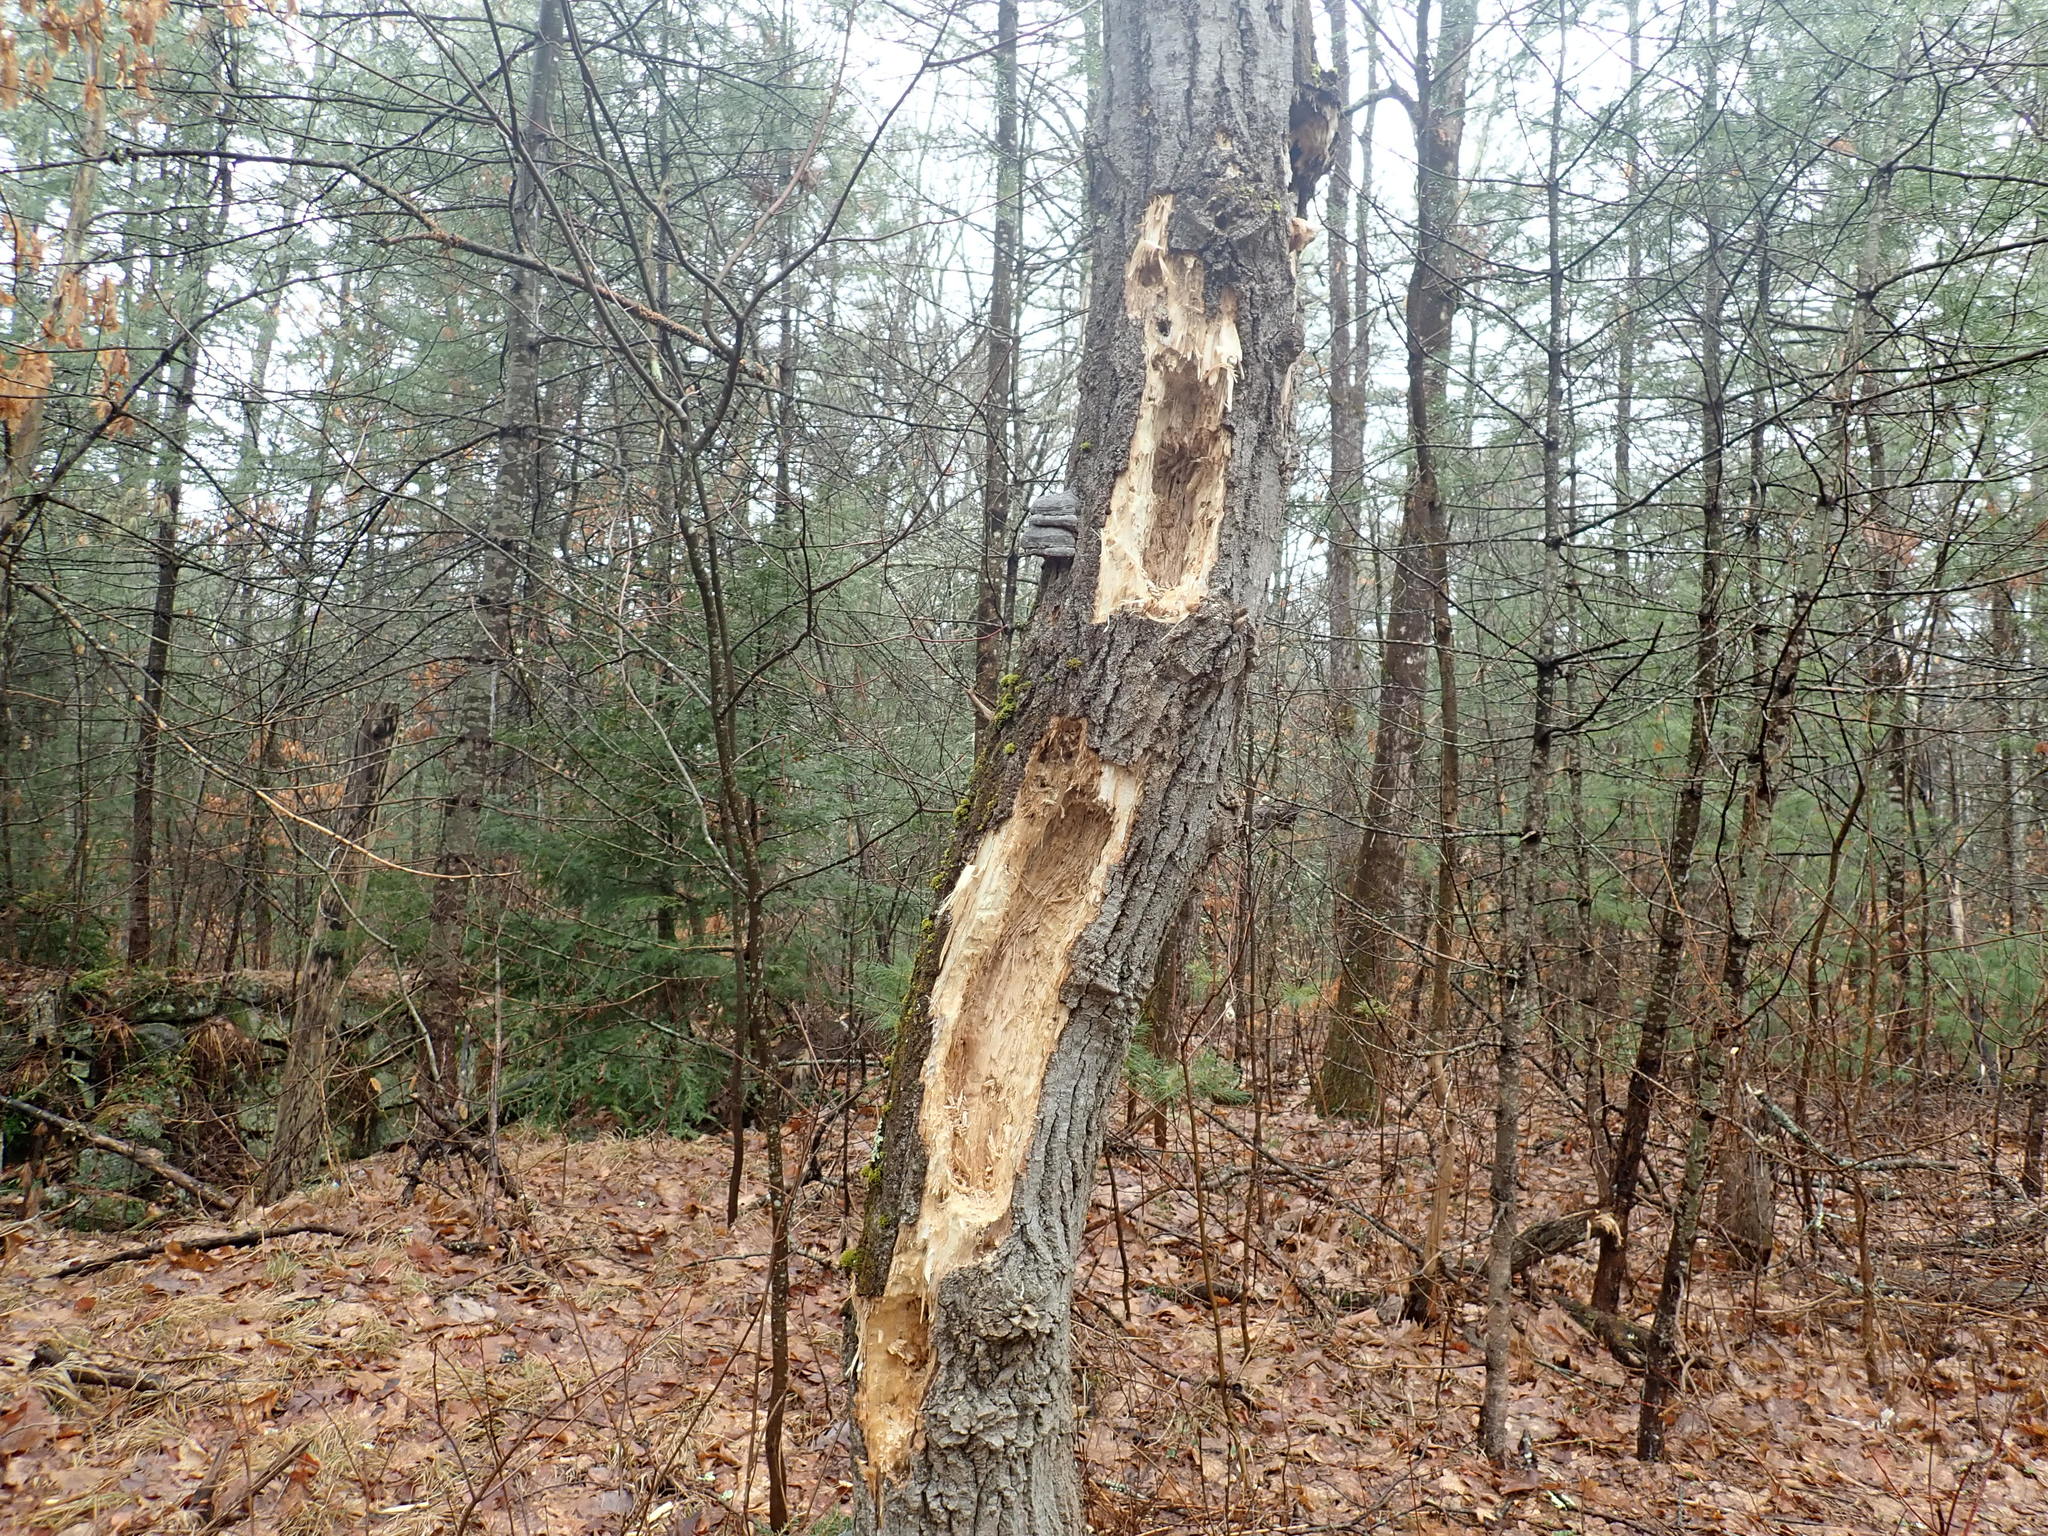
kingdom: Animalia
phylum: Chordata
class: Aves
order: Piciformes
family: Picidae
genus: Dryocopus
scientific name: Dryocopus pileatus
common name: Pileated woodpecker
